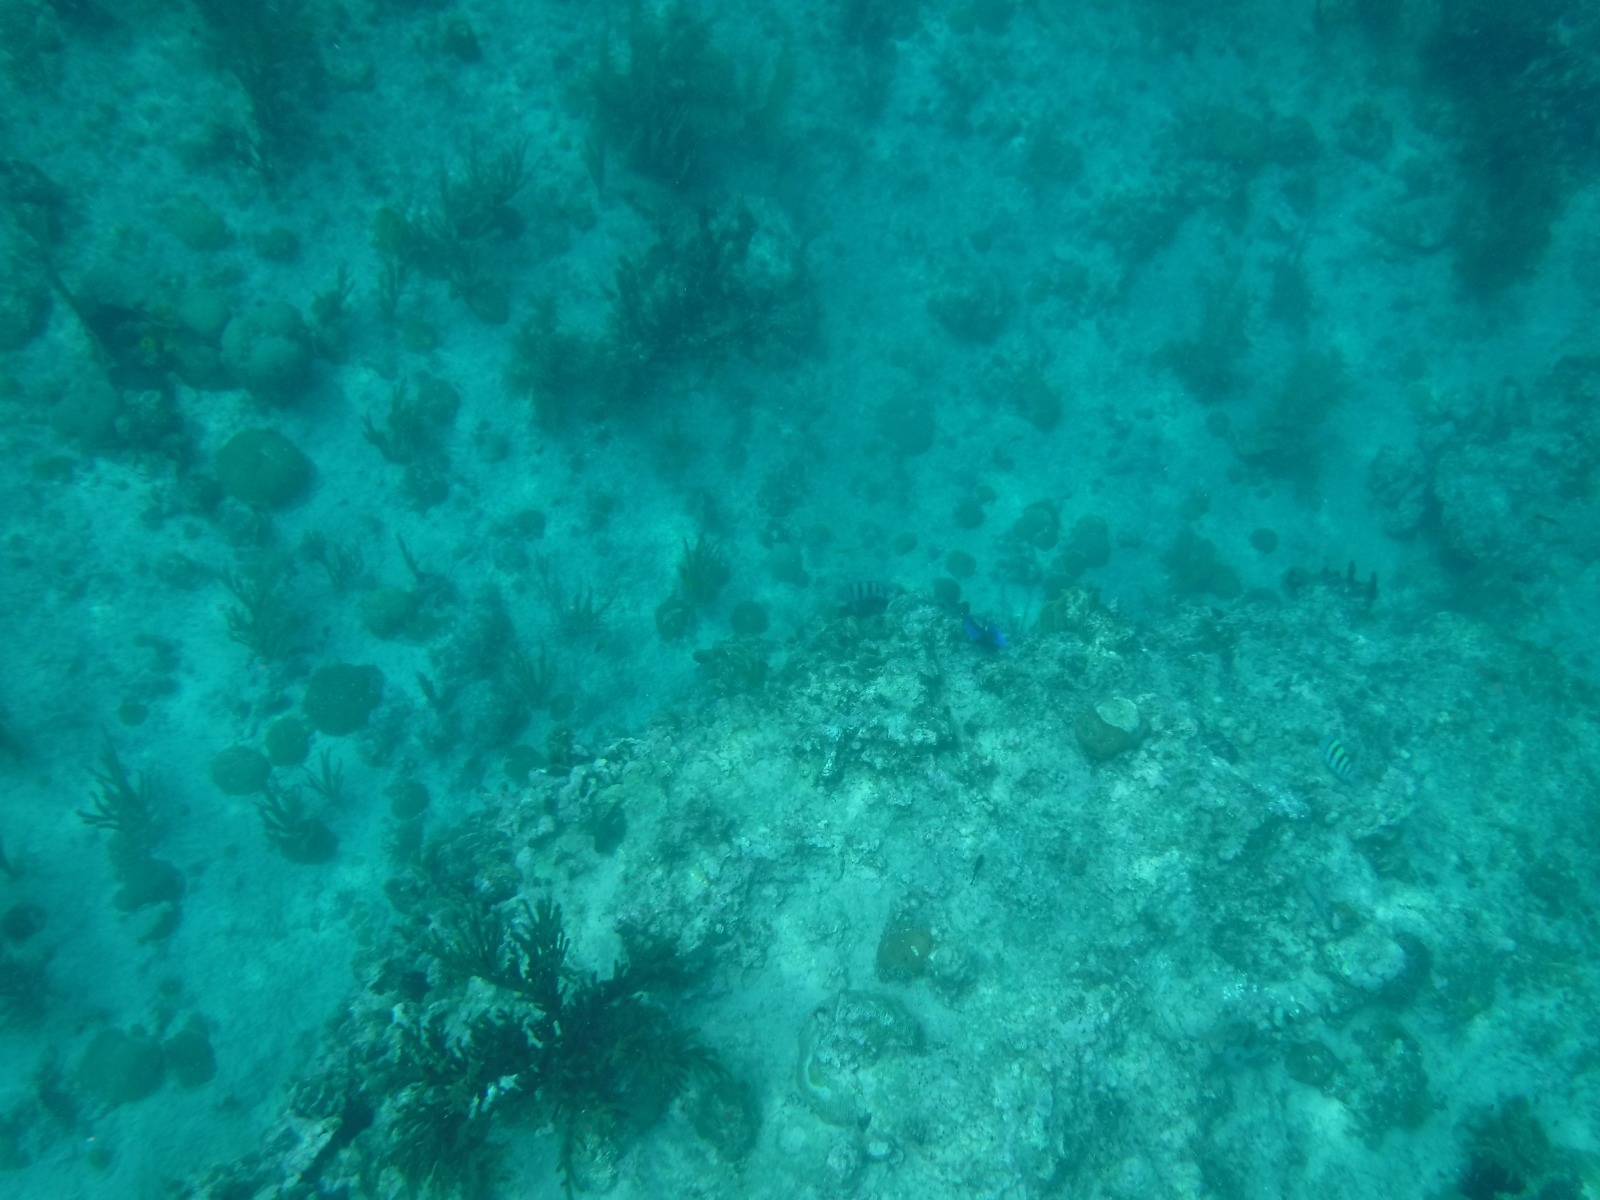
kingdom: Animalia
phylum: Chordata
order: Perciformes
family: Acanthuridae
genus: Acanthurus
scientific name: Acanthurus coeruleus
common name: Blue tang
